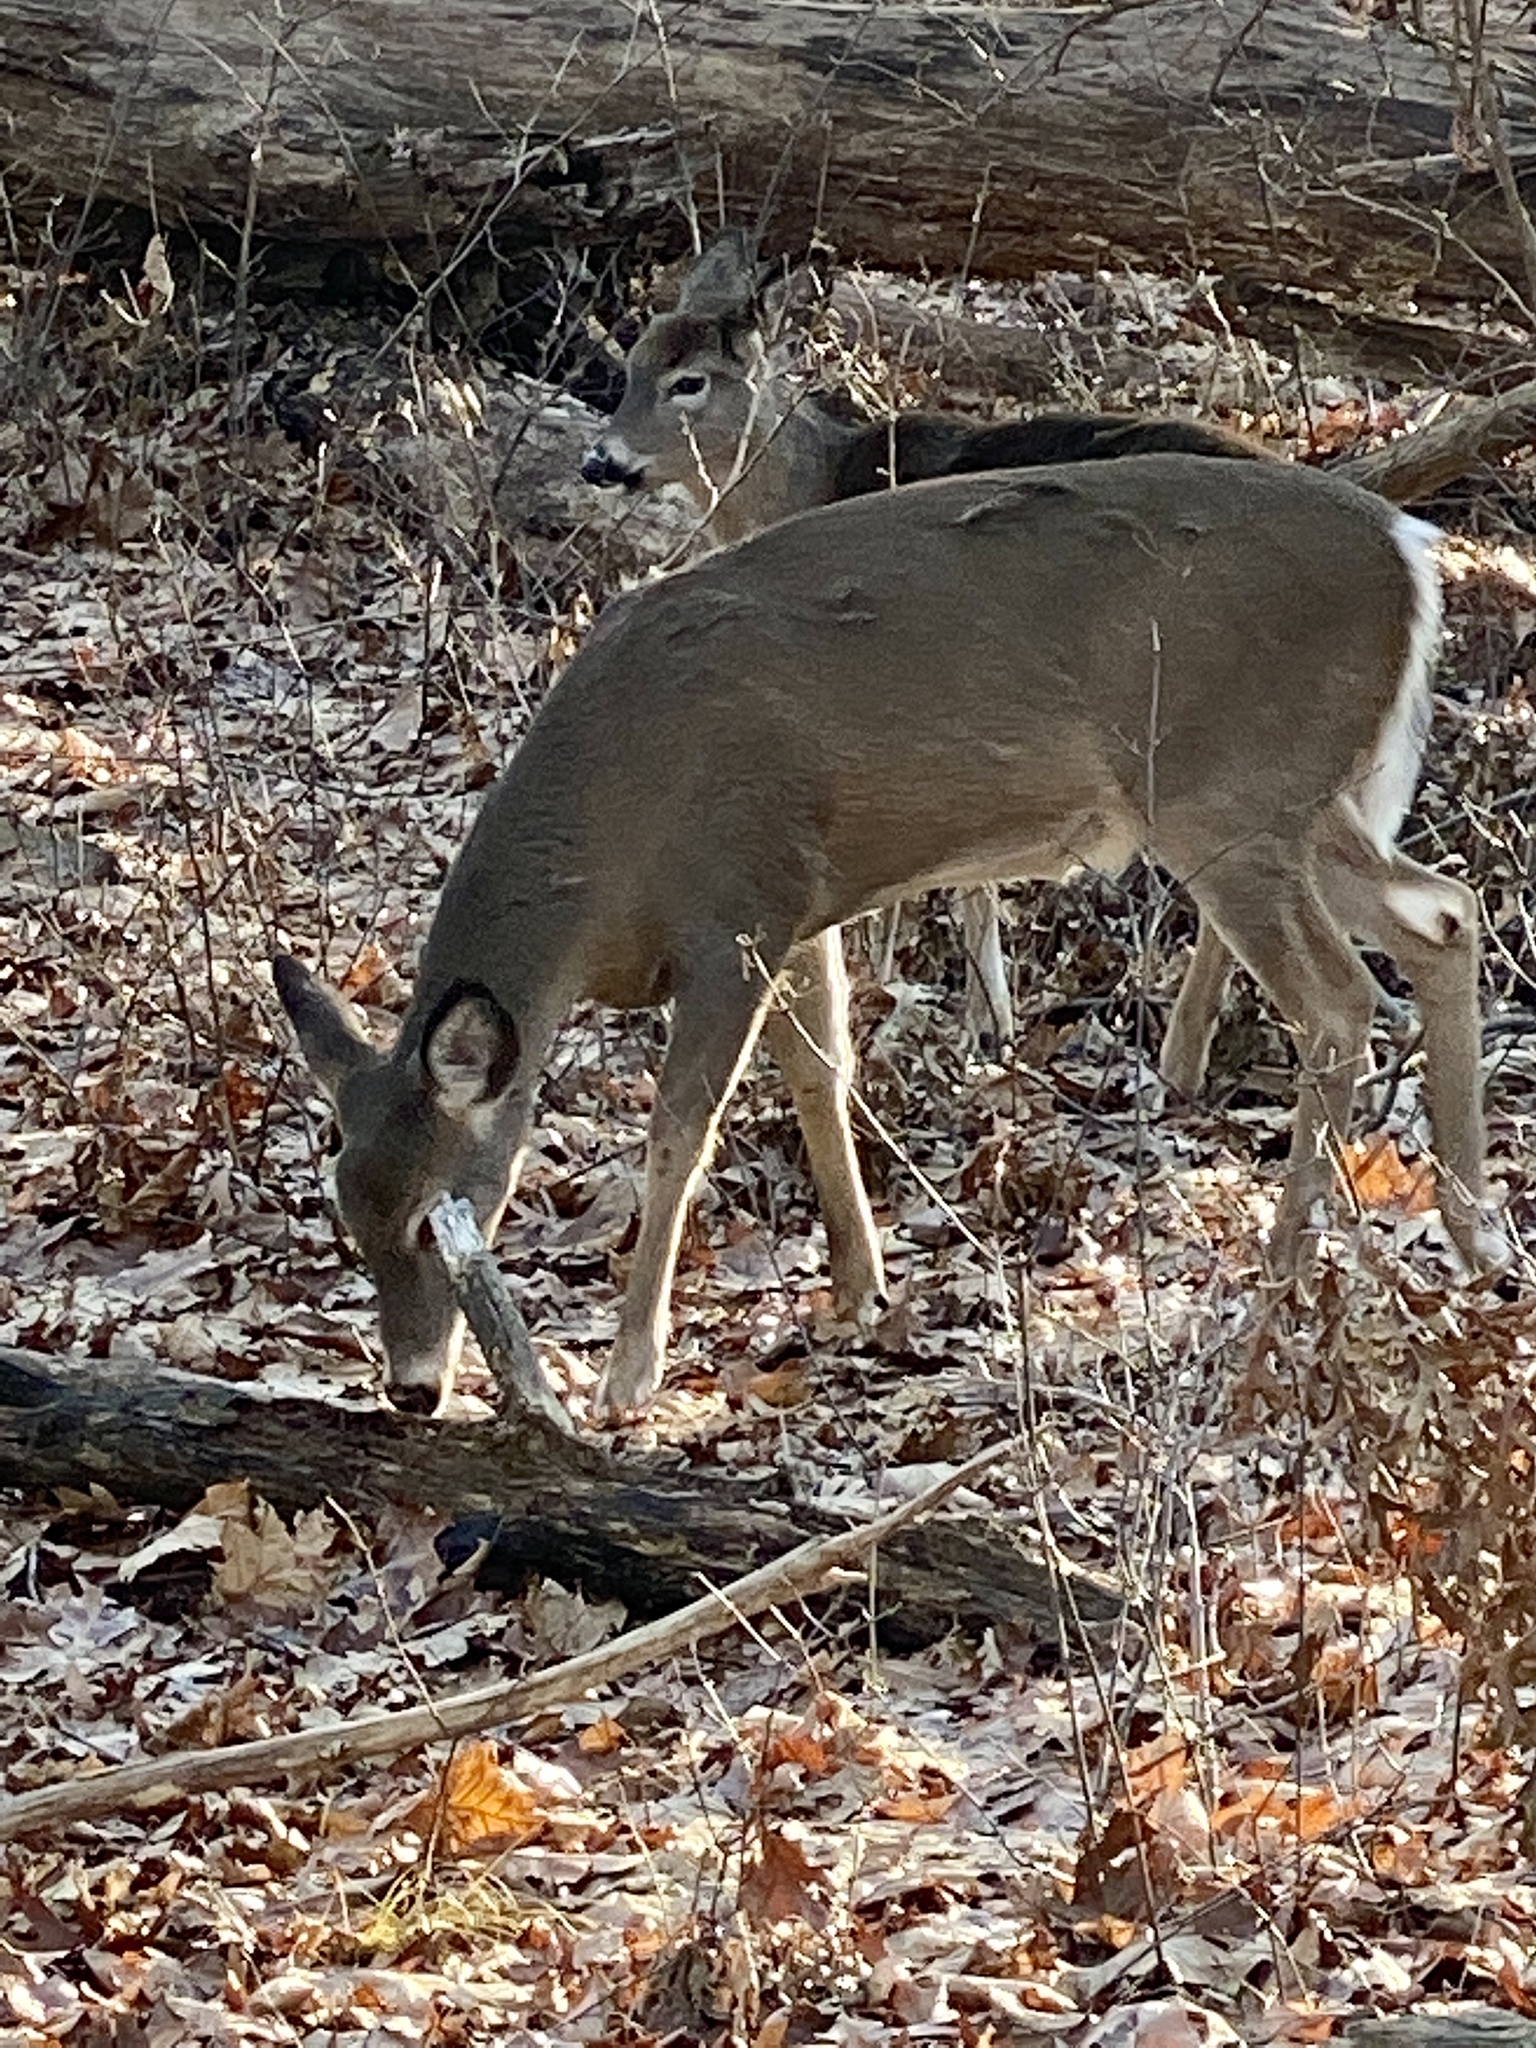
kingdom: Animalia
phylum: Chordata
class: Mammalia
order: Artiodactyla
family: Cervidae
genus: Odocoileus
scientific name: Odocoileus virginianus
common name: White-tailed deer
